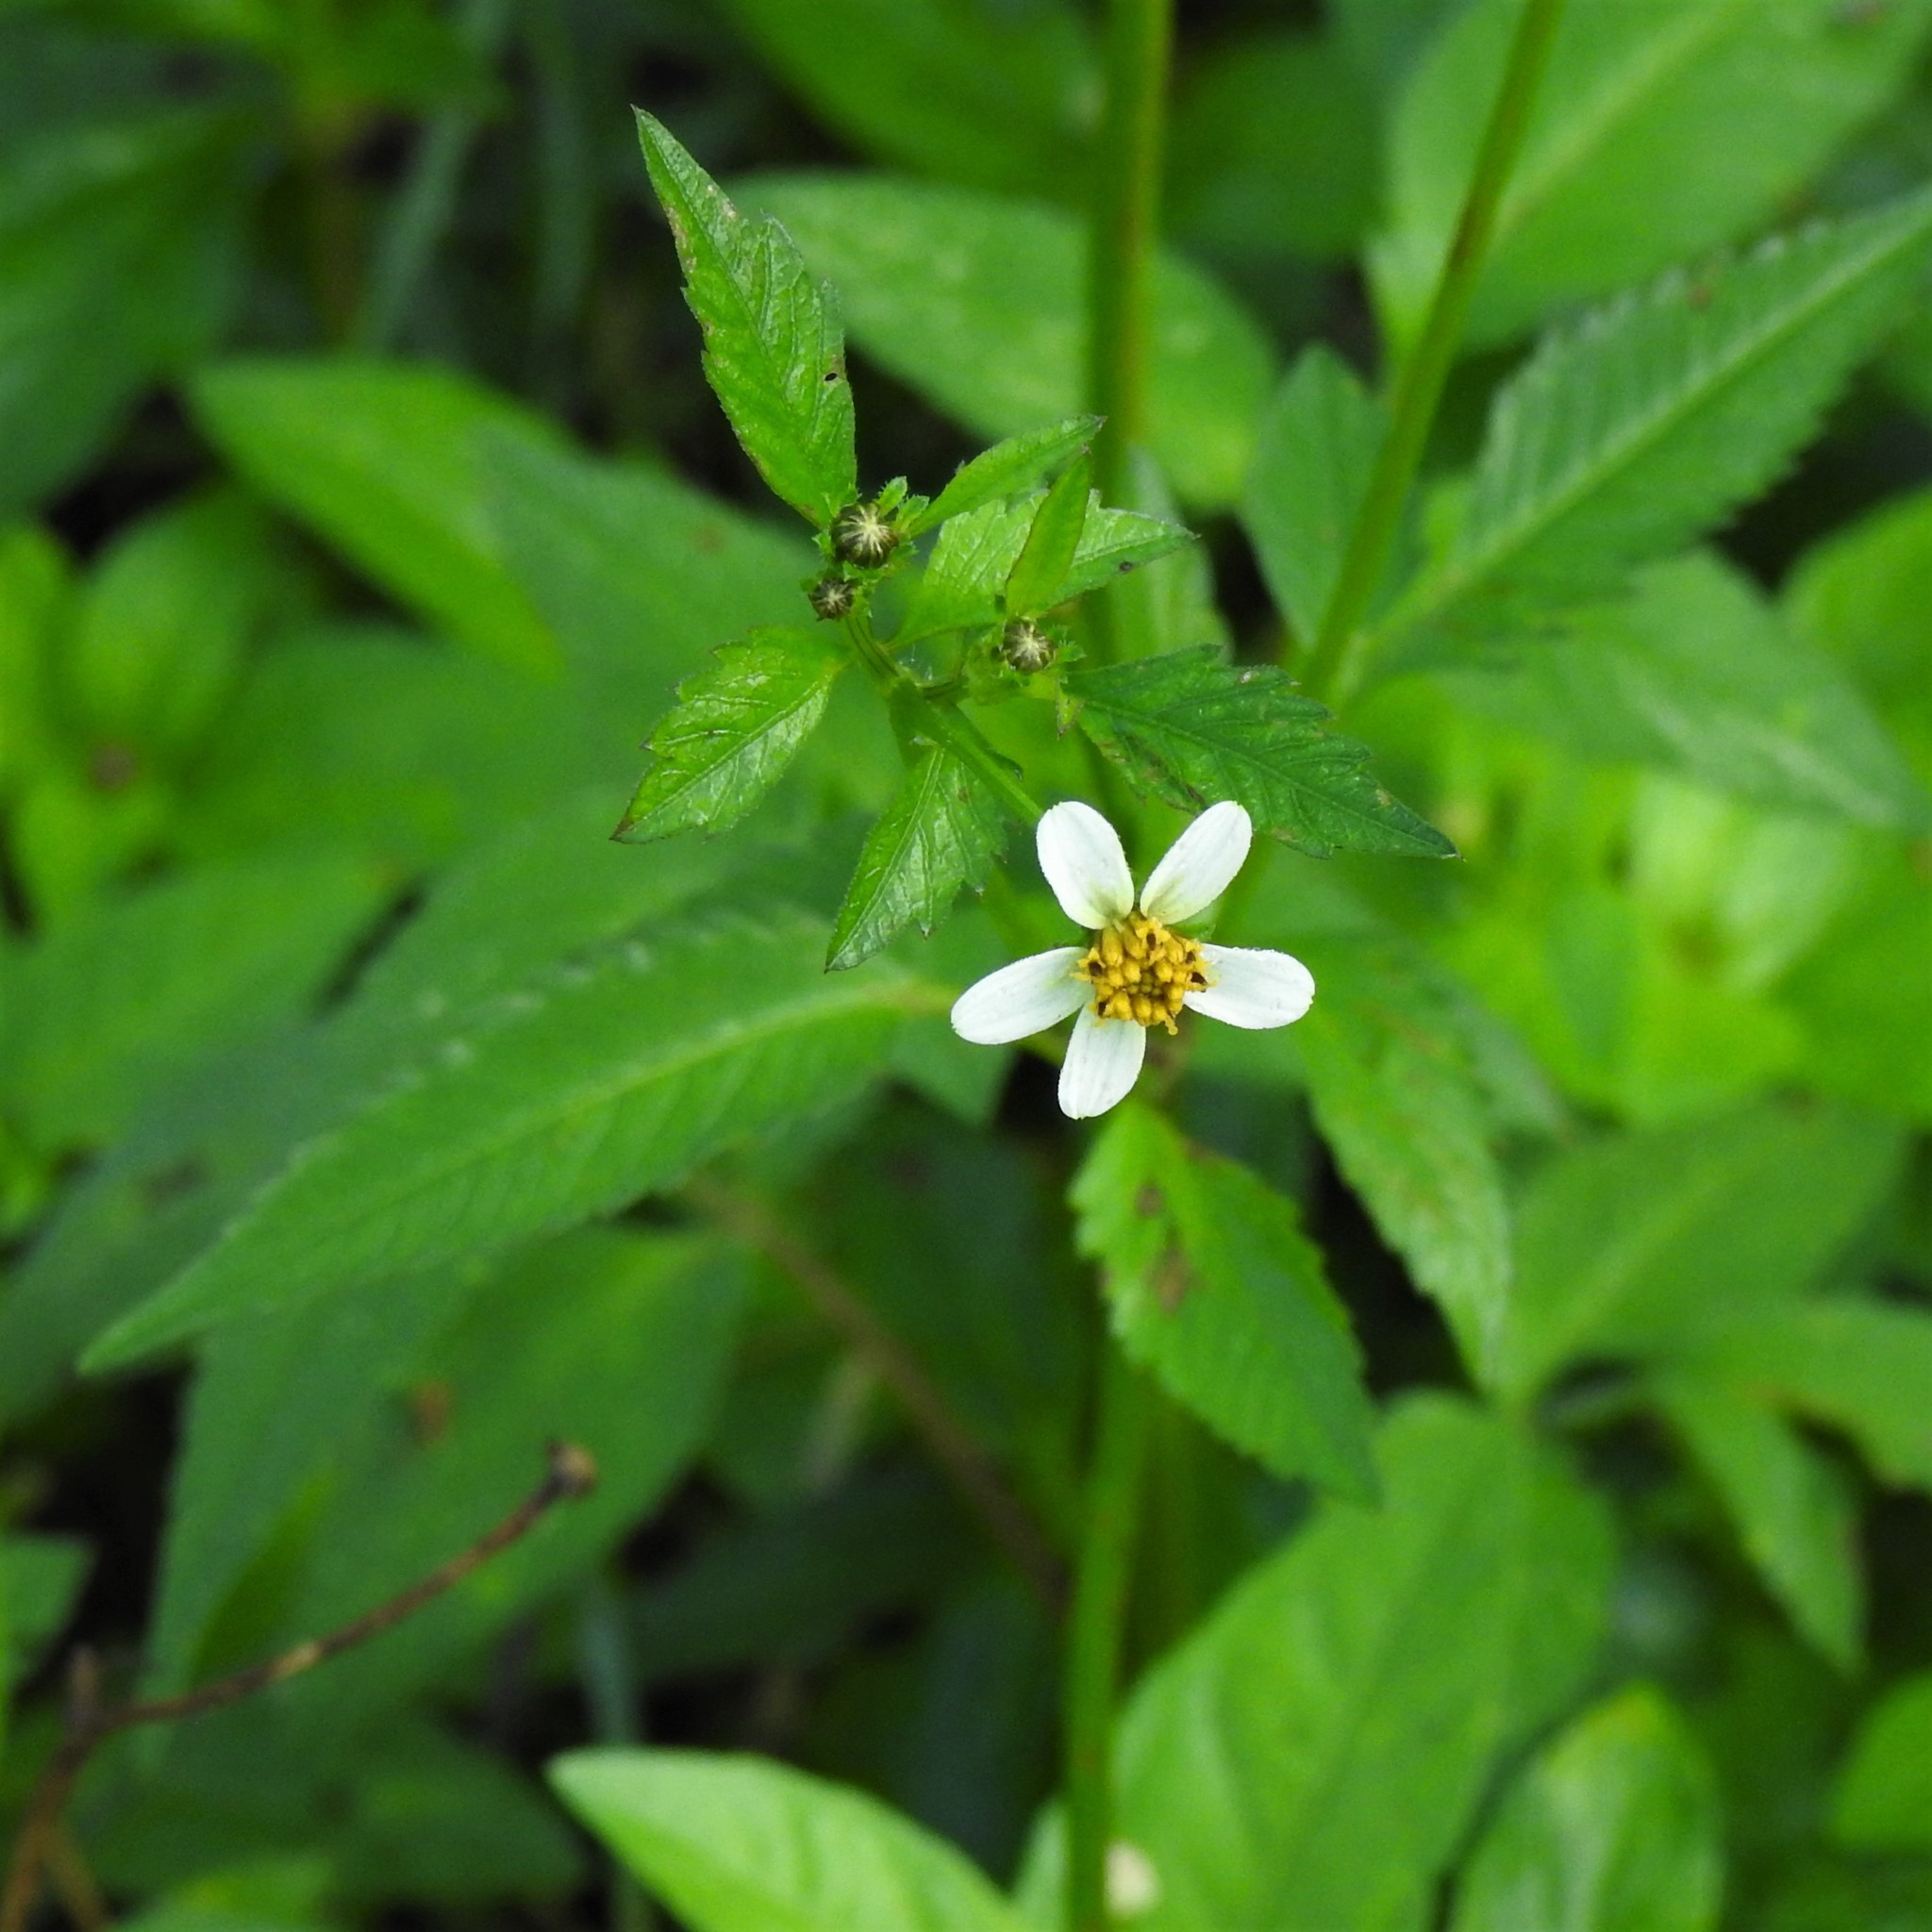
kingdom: Plantae
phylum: Tracheophyta
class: Magnoliopsida
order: Asterales
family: Asteraceae
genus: Bidens
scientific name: Bidens pilosa
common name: Black-jack
